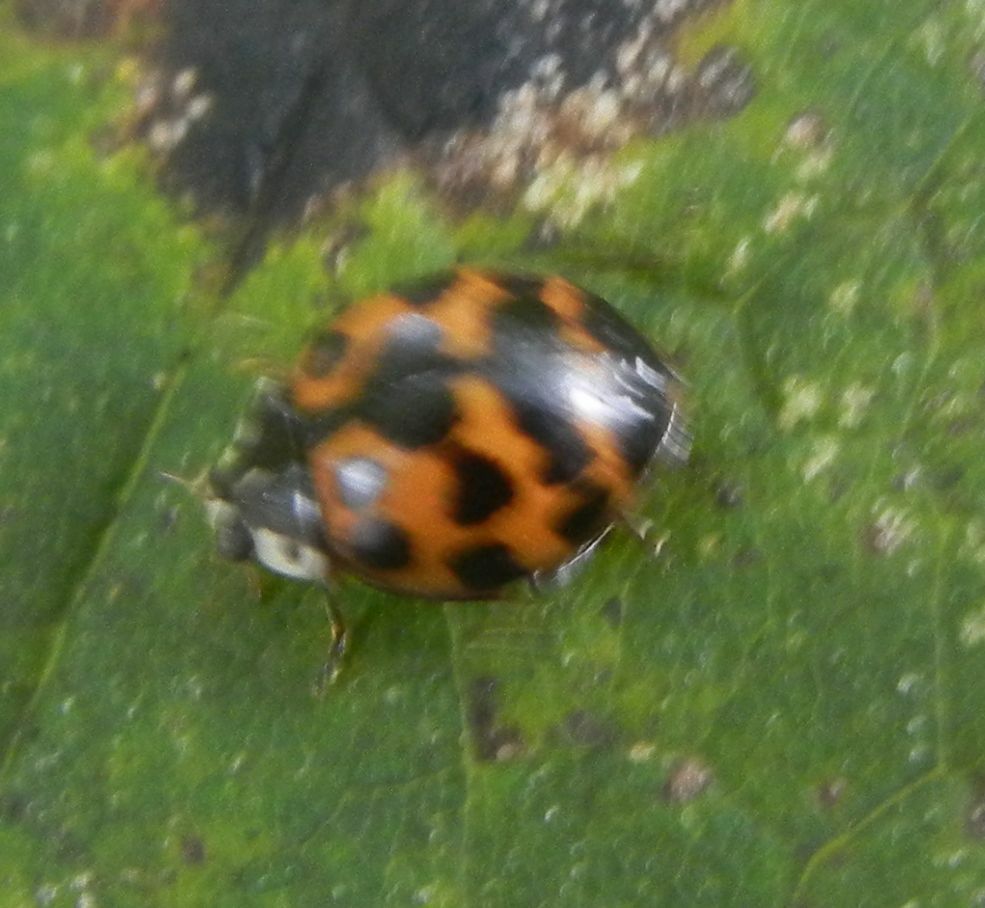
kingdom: Animalia
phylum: Arthropoda
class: Insecta
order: Coleoptera
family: Coccinellidae
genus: Harmonia
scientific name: Harmonia axyridis
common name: Harlequin ladybird
